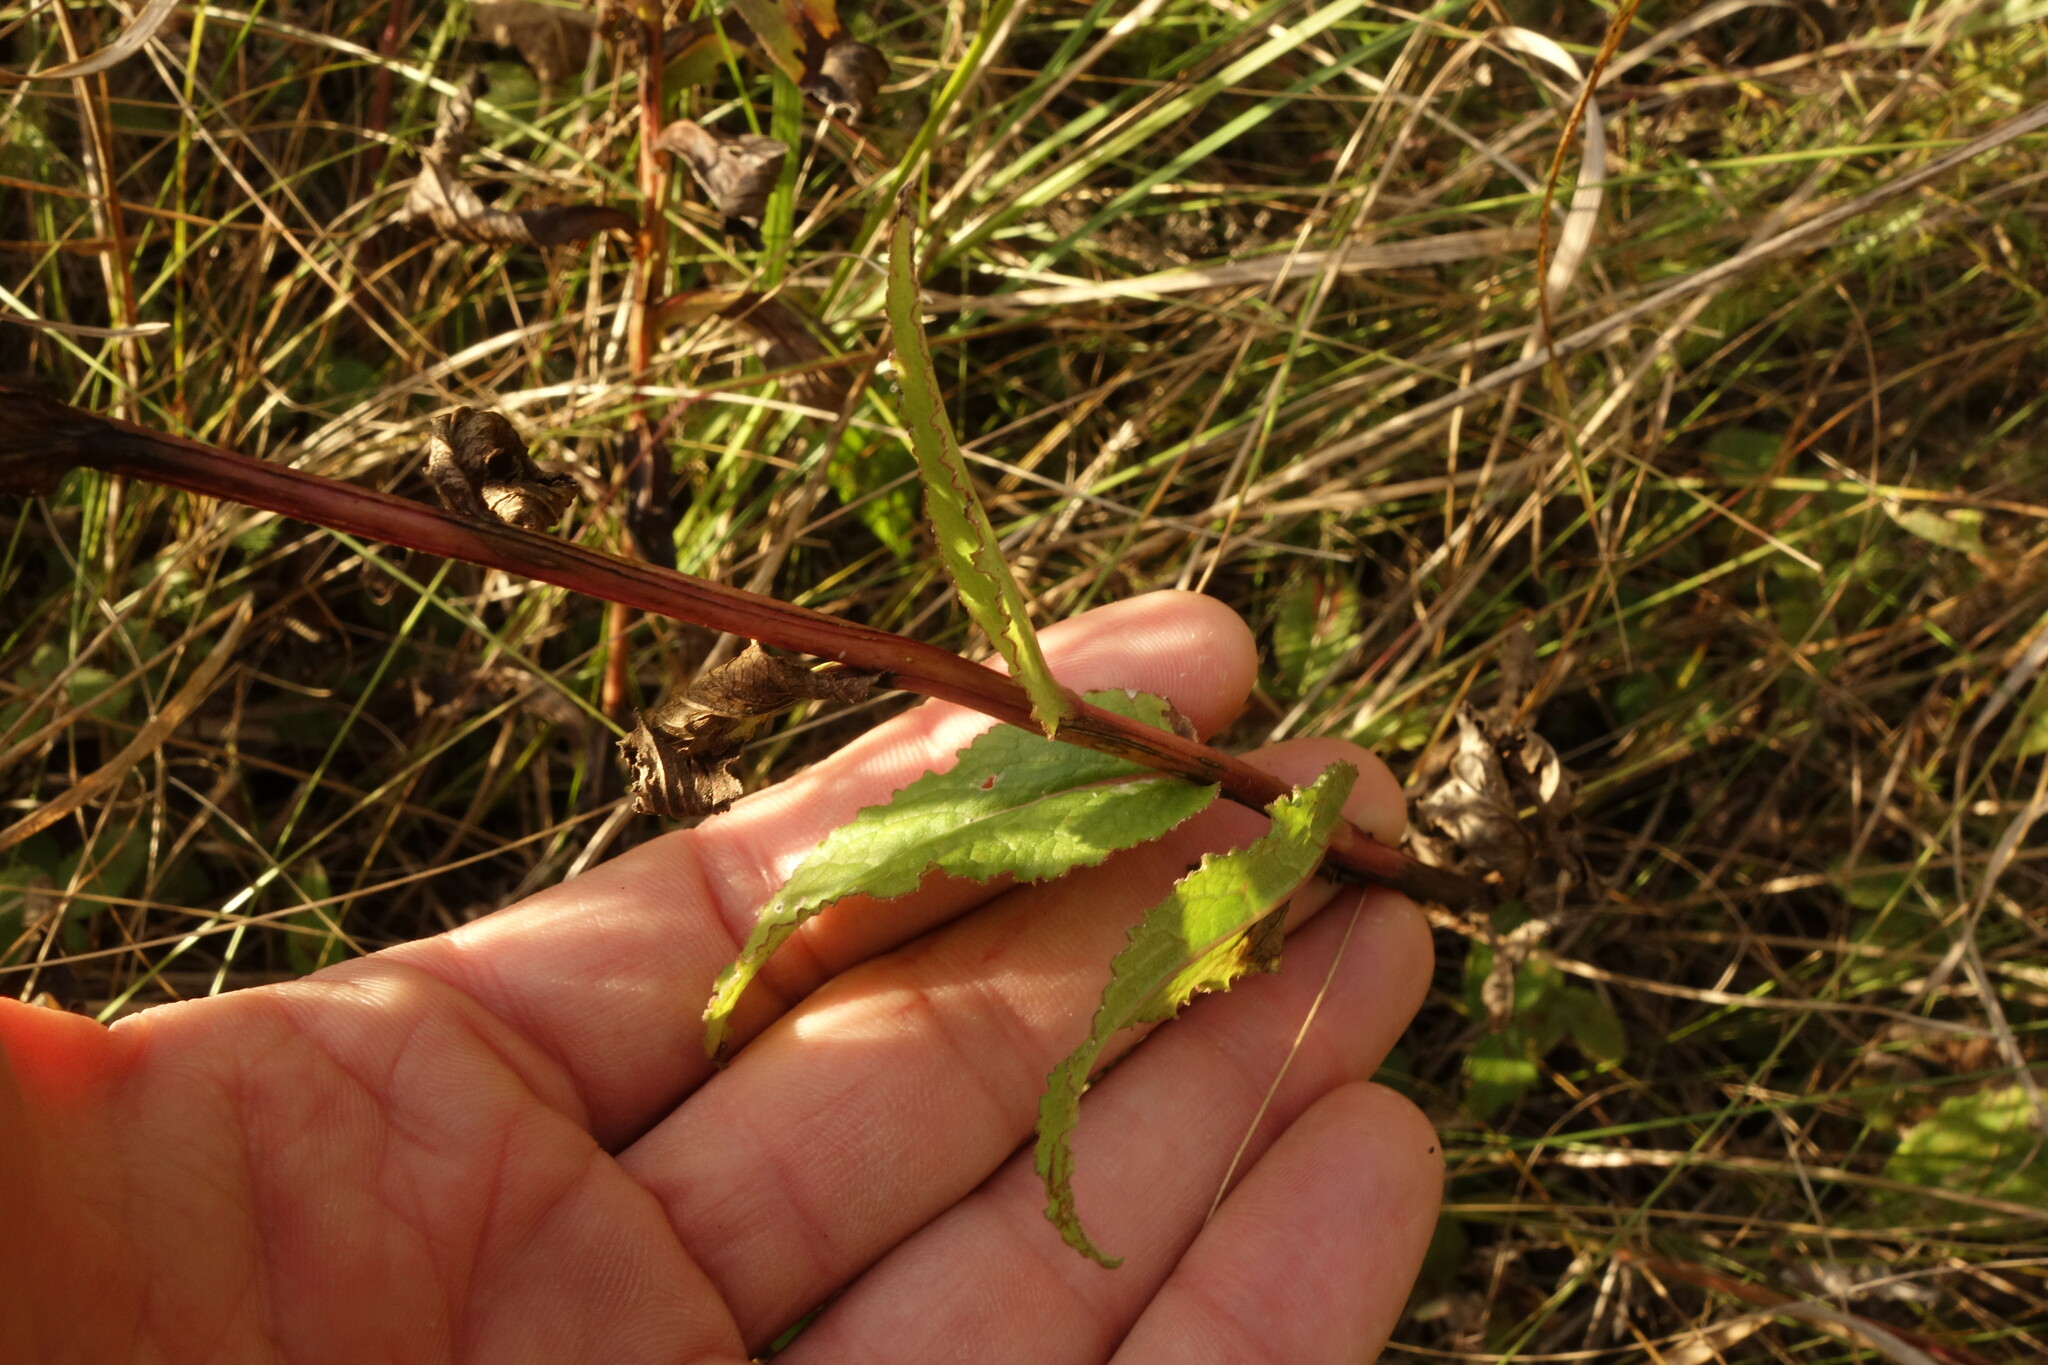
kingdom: Plantae
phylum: Tracheophyta
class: Magnoliopsida
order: Asterales
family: Campanulaceae
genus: Campanula
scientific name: Campanula glomerata
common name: Clustered bellflower
